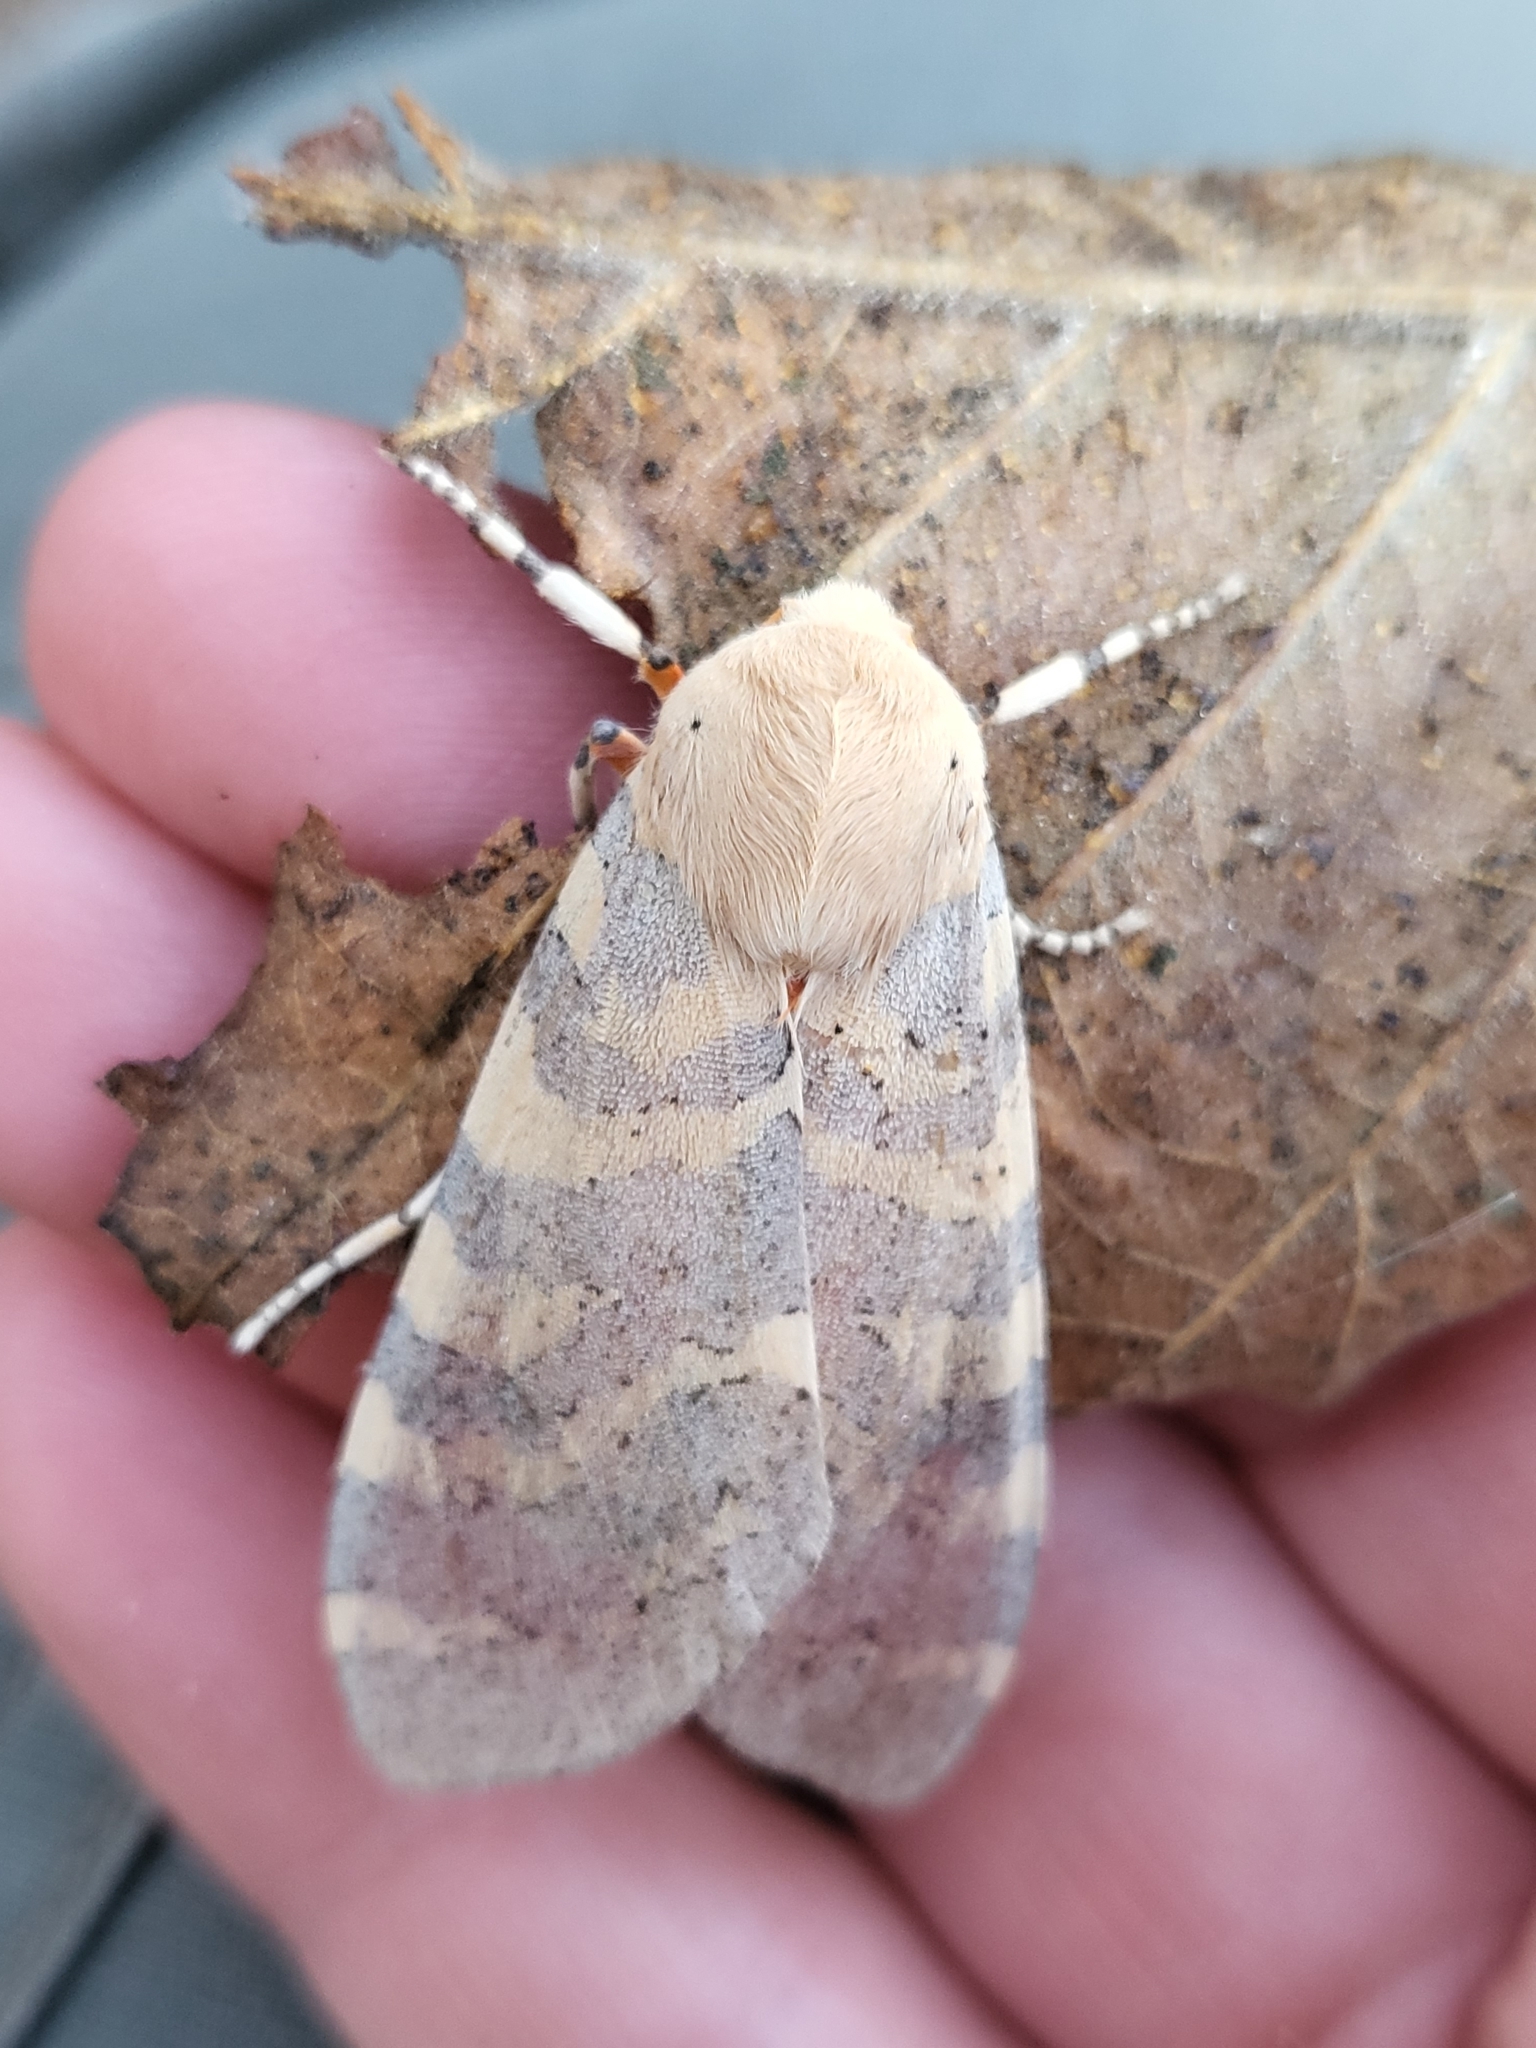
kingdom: Animalia
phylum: Arthropoda
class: Insecta
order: Lepidoptera
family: Erebidae
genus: Hemihyalea
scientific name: Hemihyalea edwardsii
